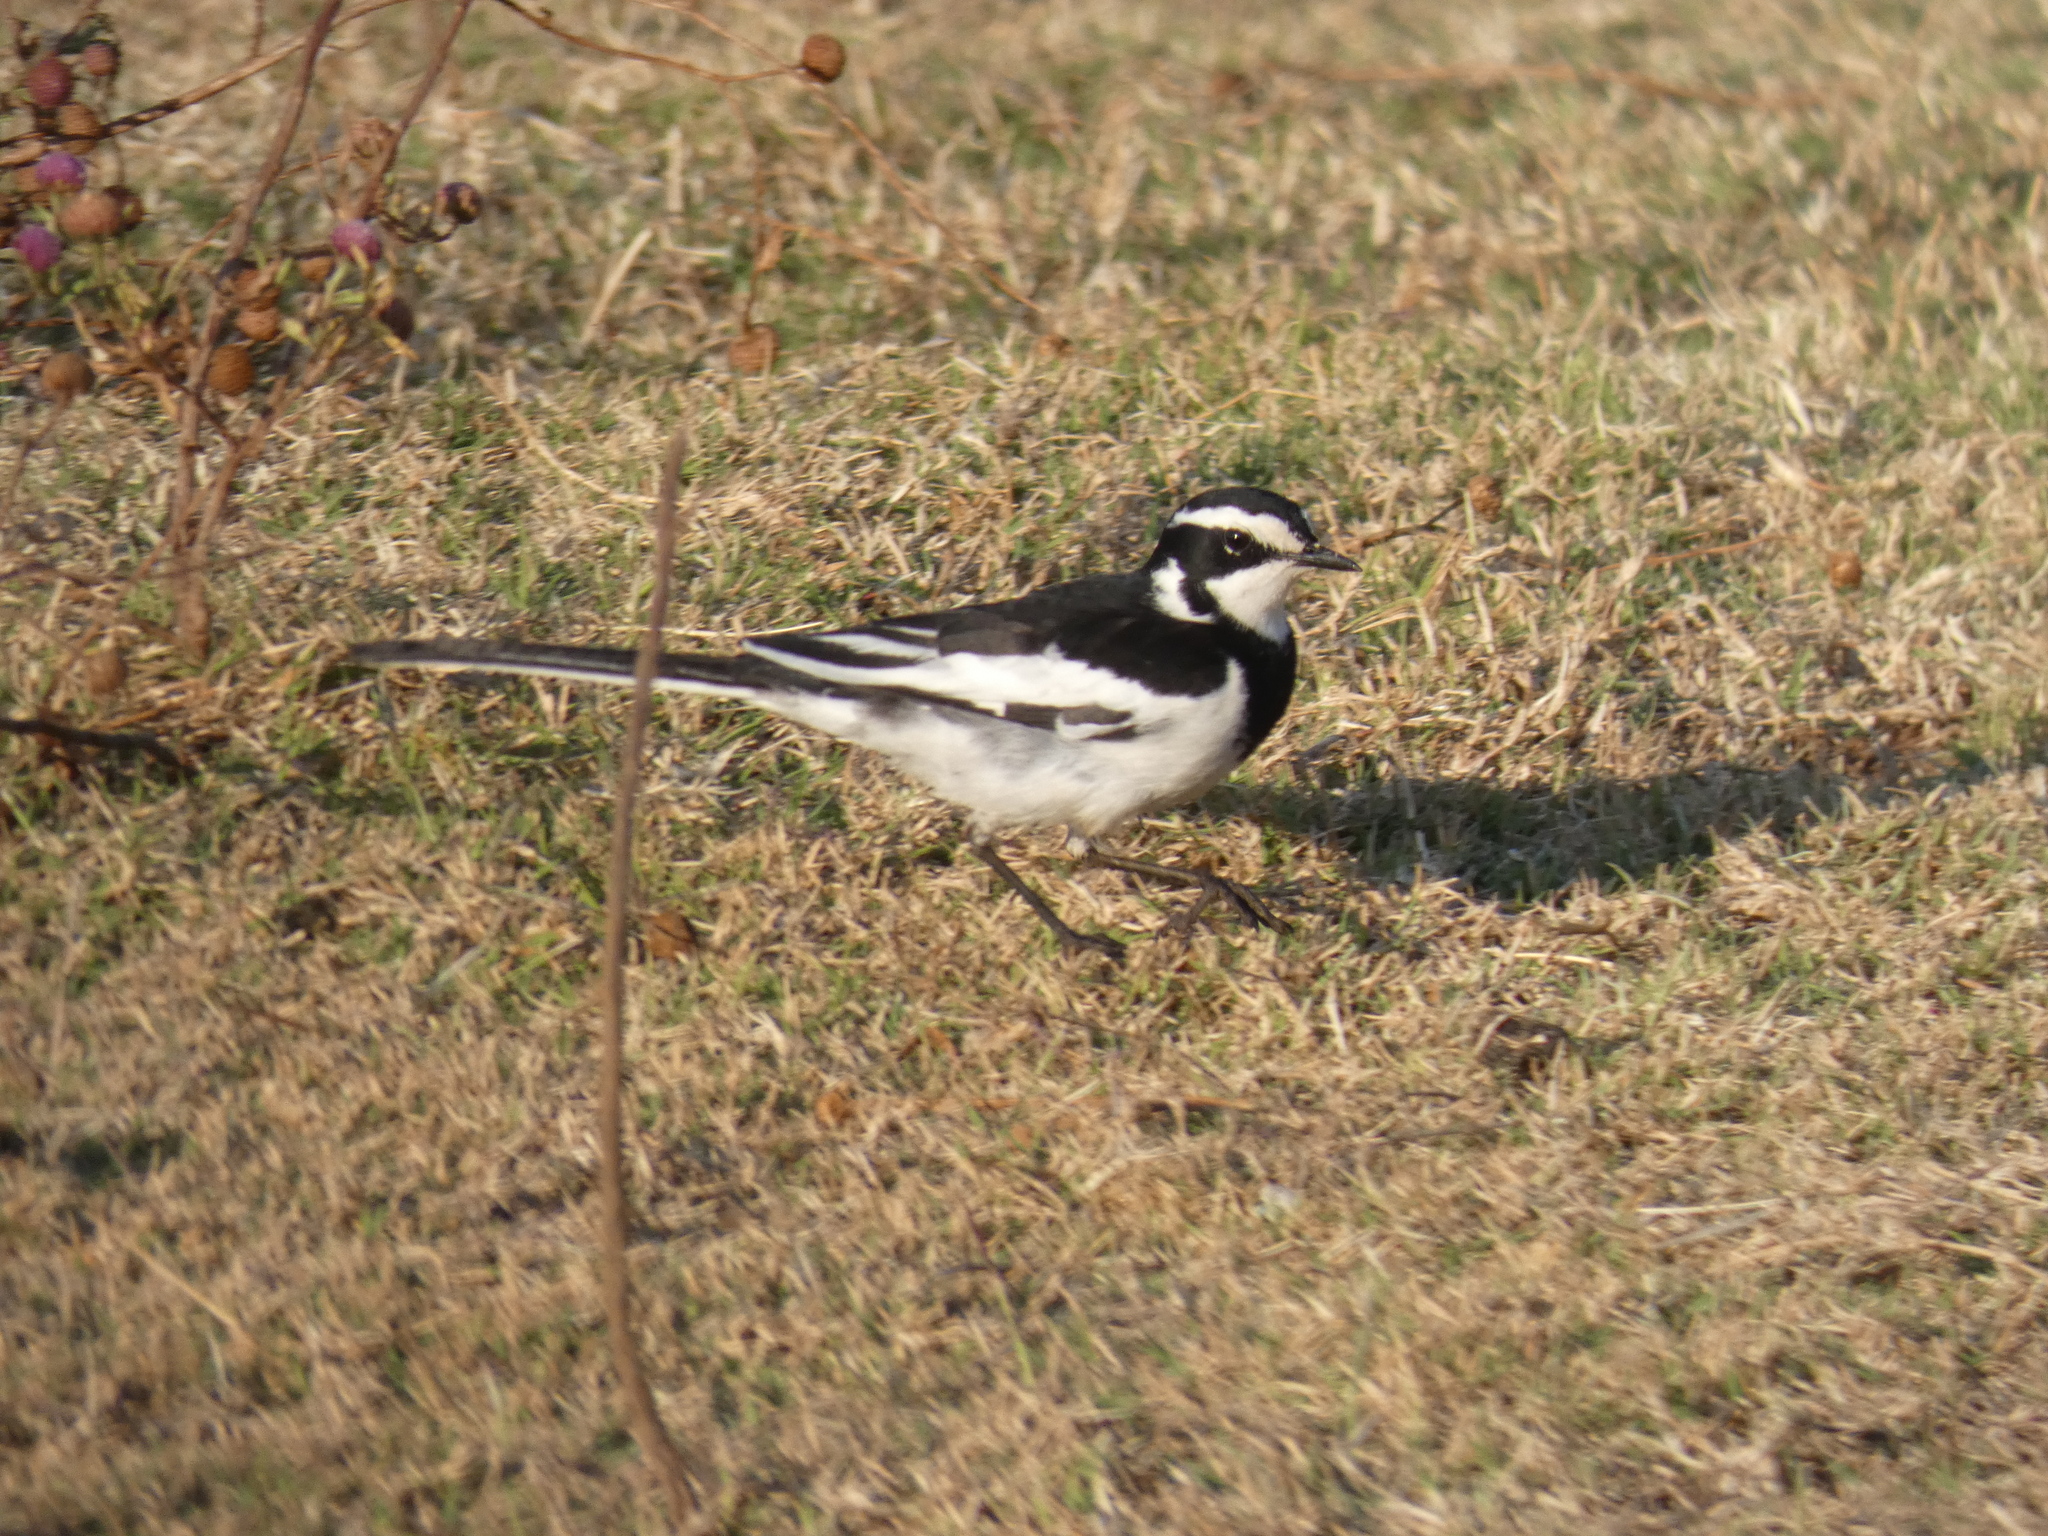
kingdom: Animalia
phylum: Chordata
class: Aves
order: Passeriformes
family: Motacillidae
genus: Motacilla
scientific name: Motacilla aguimp
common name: African pied wagtail
